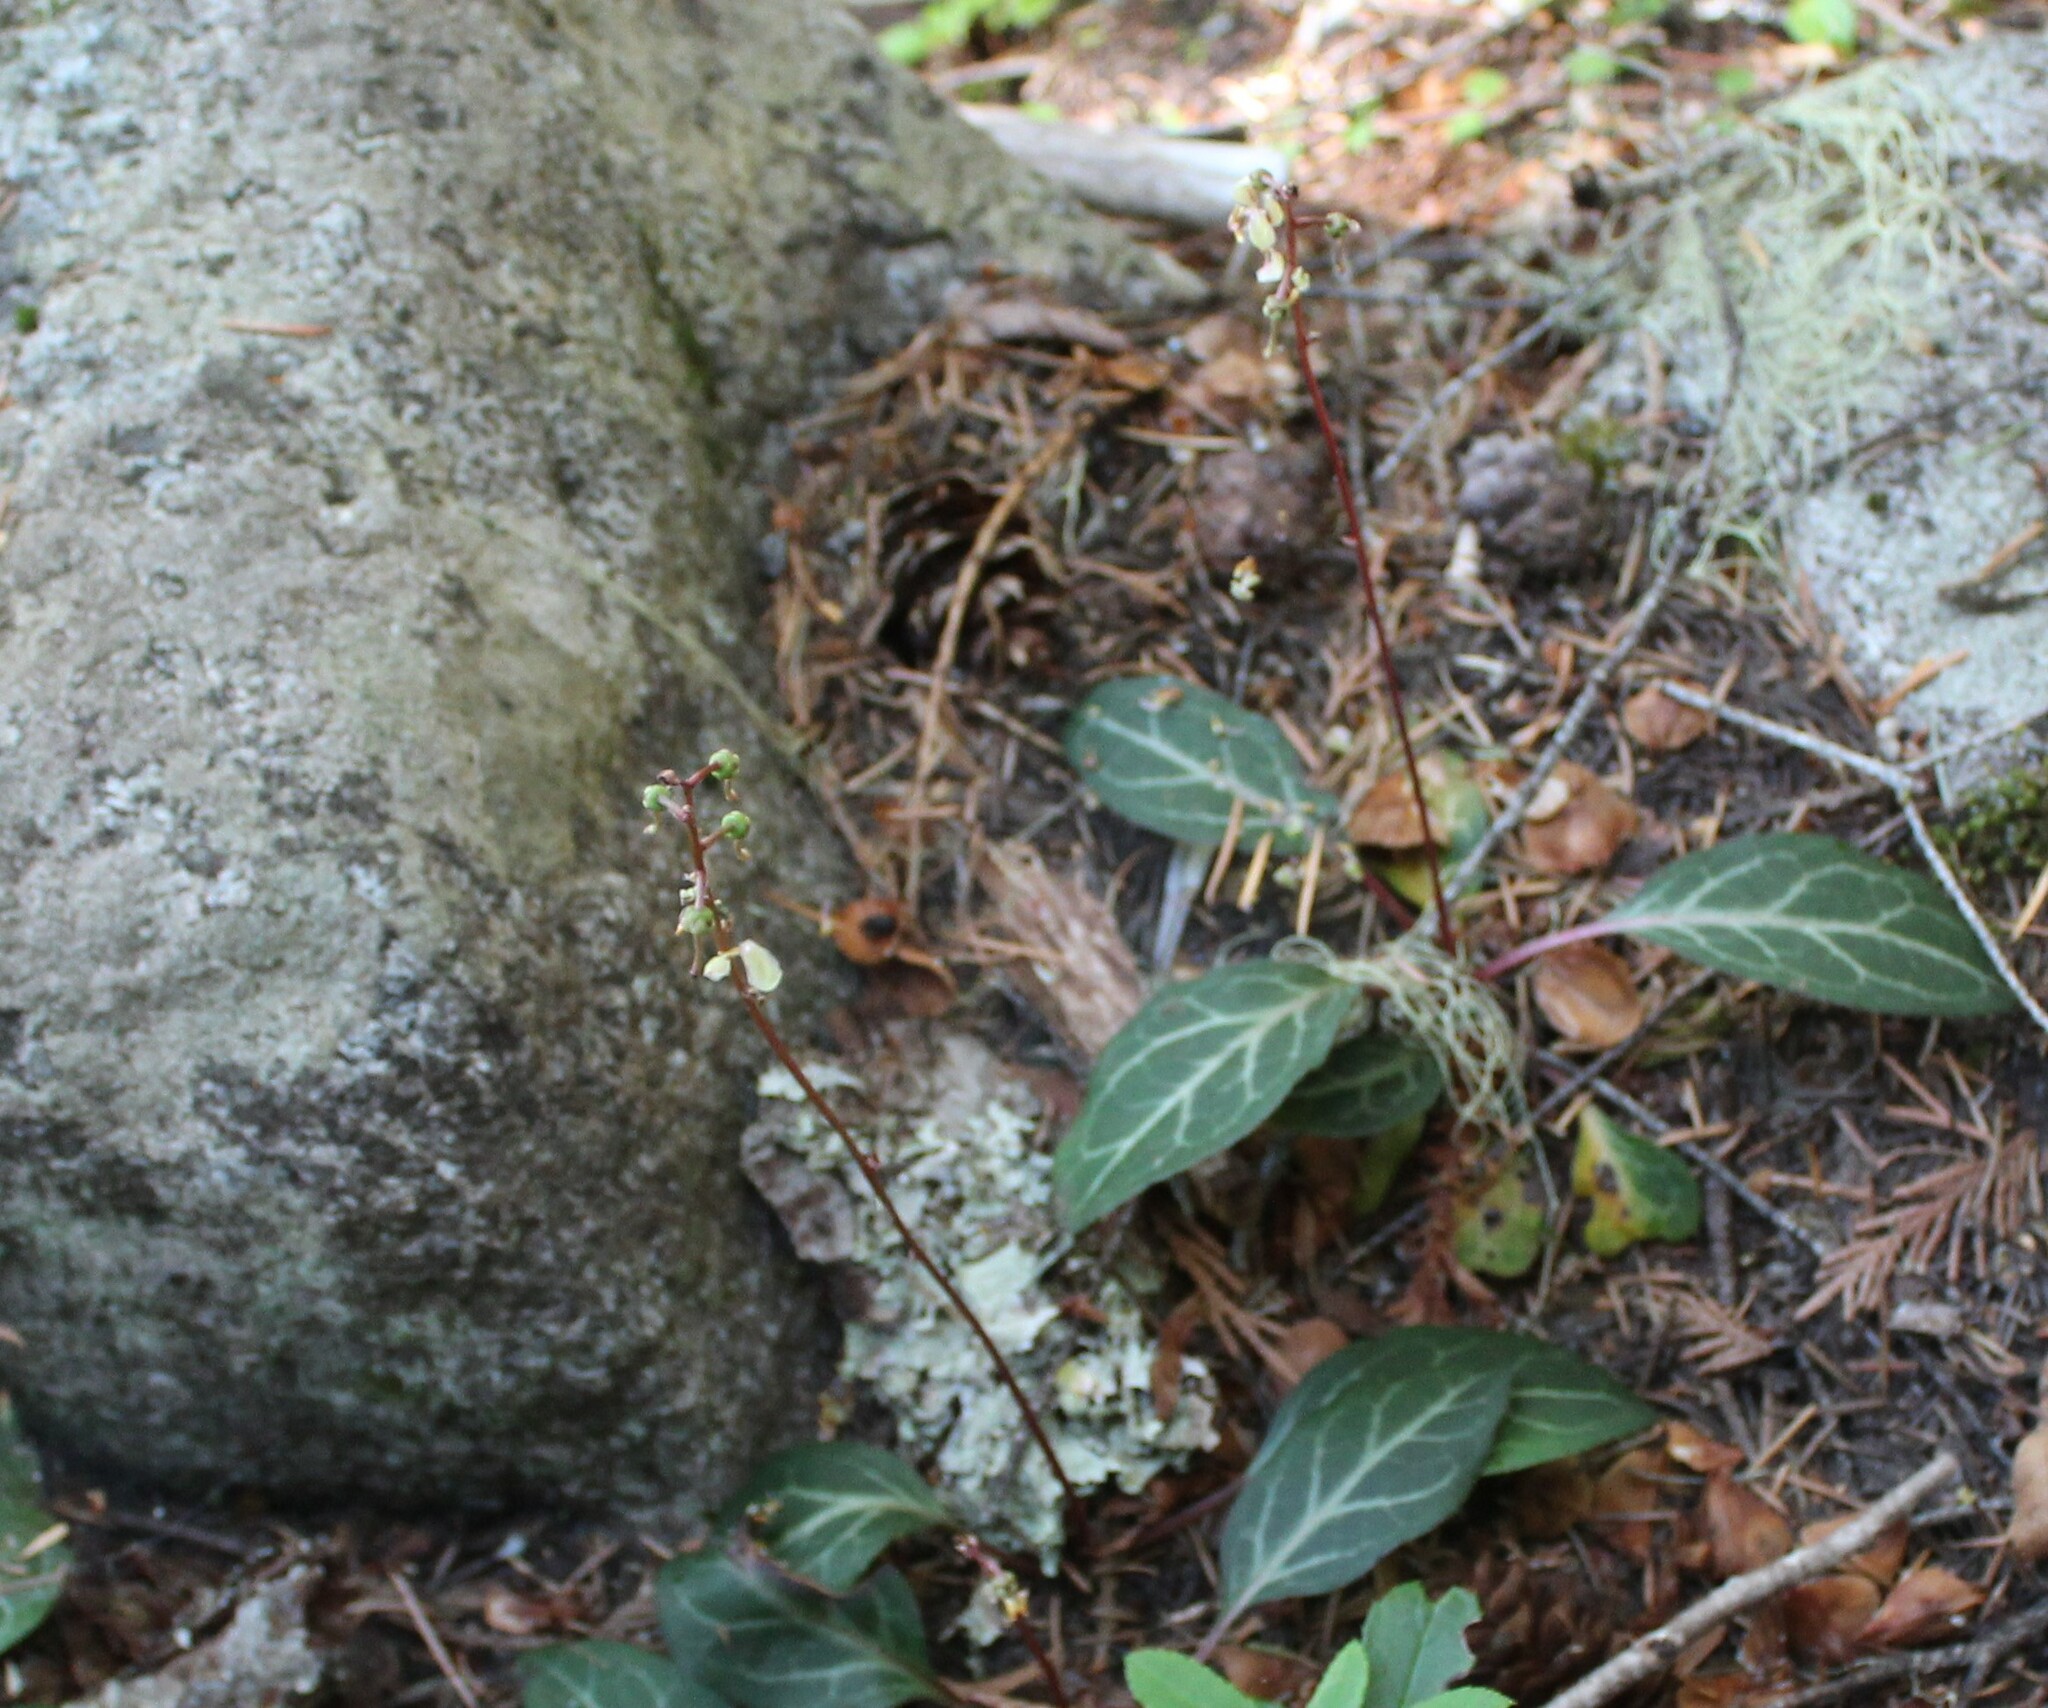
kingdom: Plantae
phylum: Tracheophyta
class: Magnoliopsida
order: Ericales
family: Ericaceae
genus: Pyrola
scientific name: Pyrola picta
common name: White-vein wintergreen
